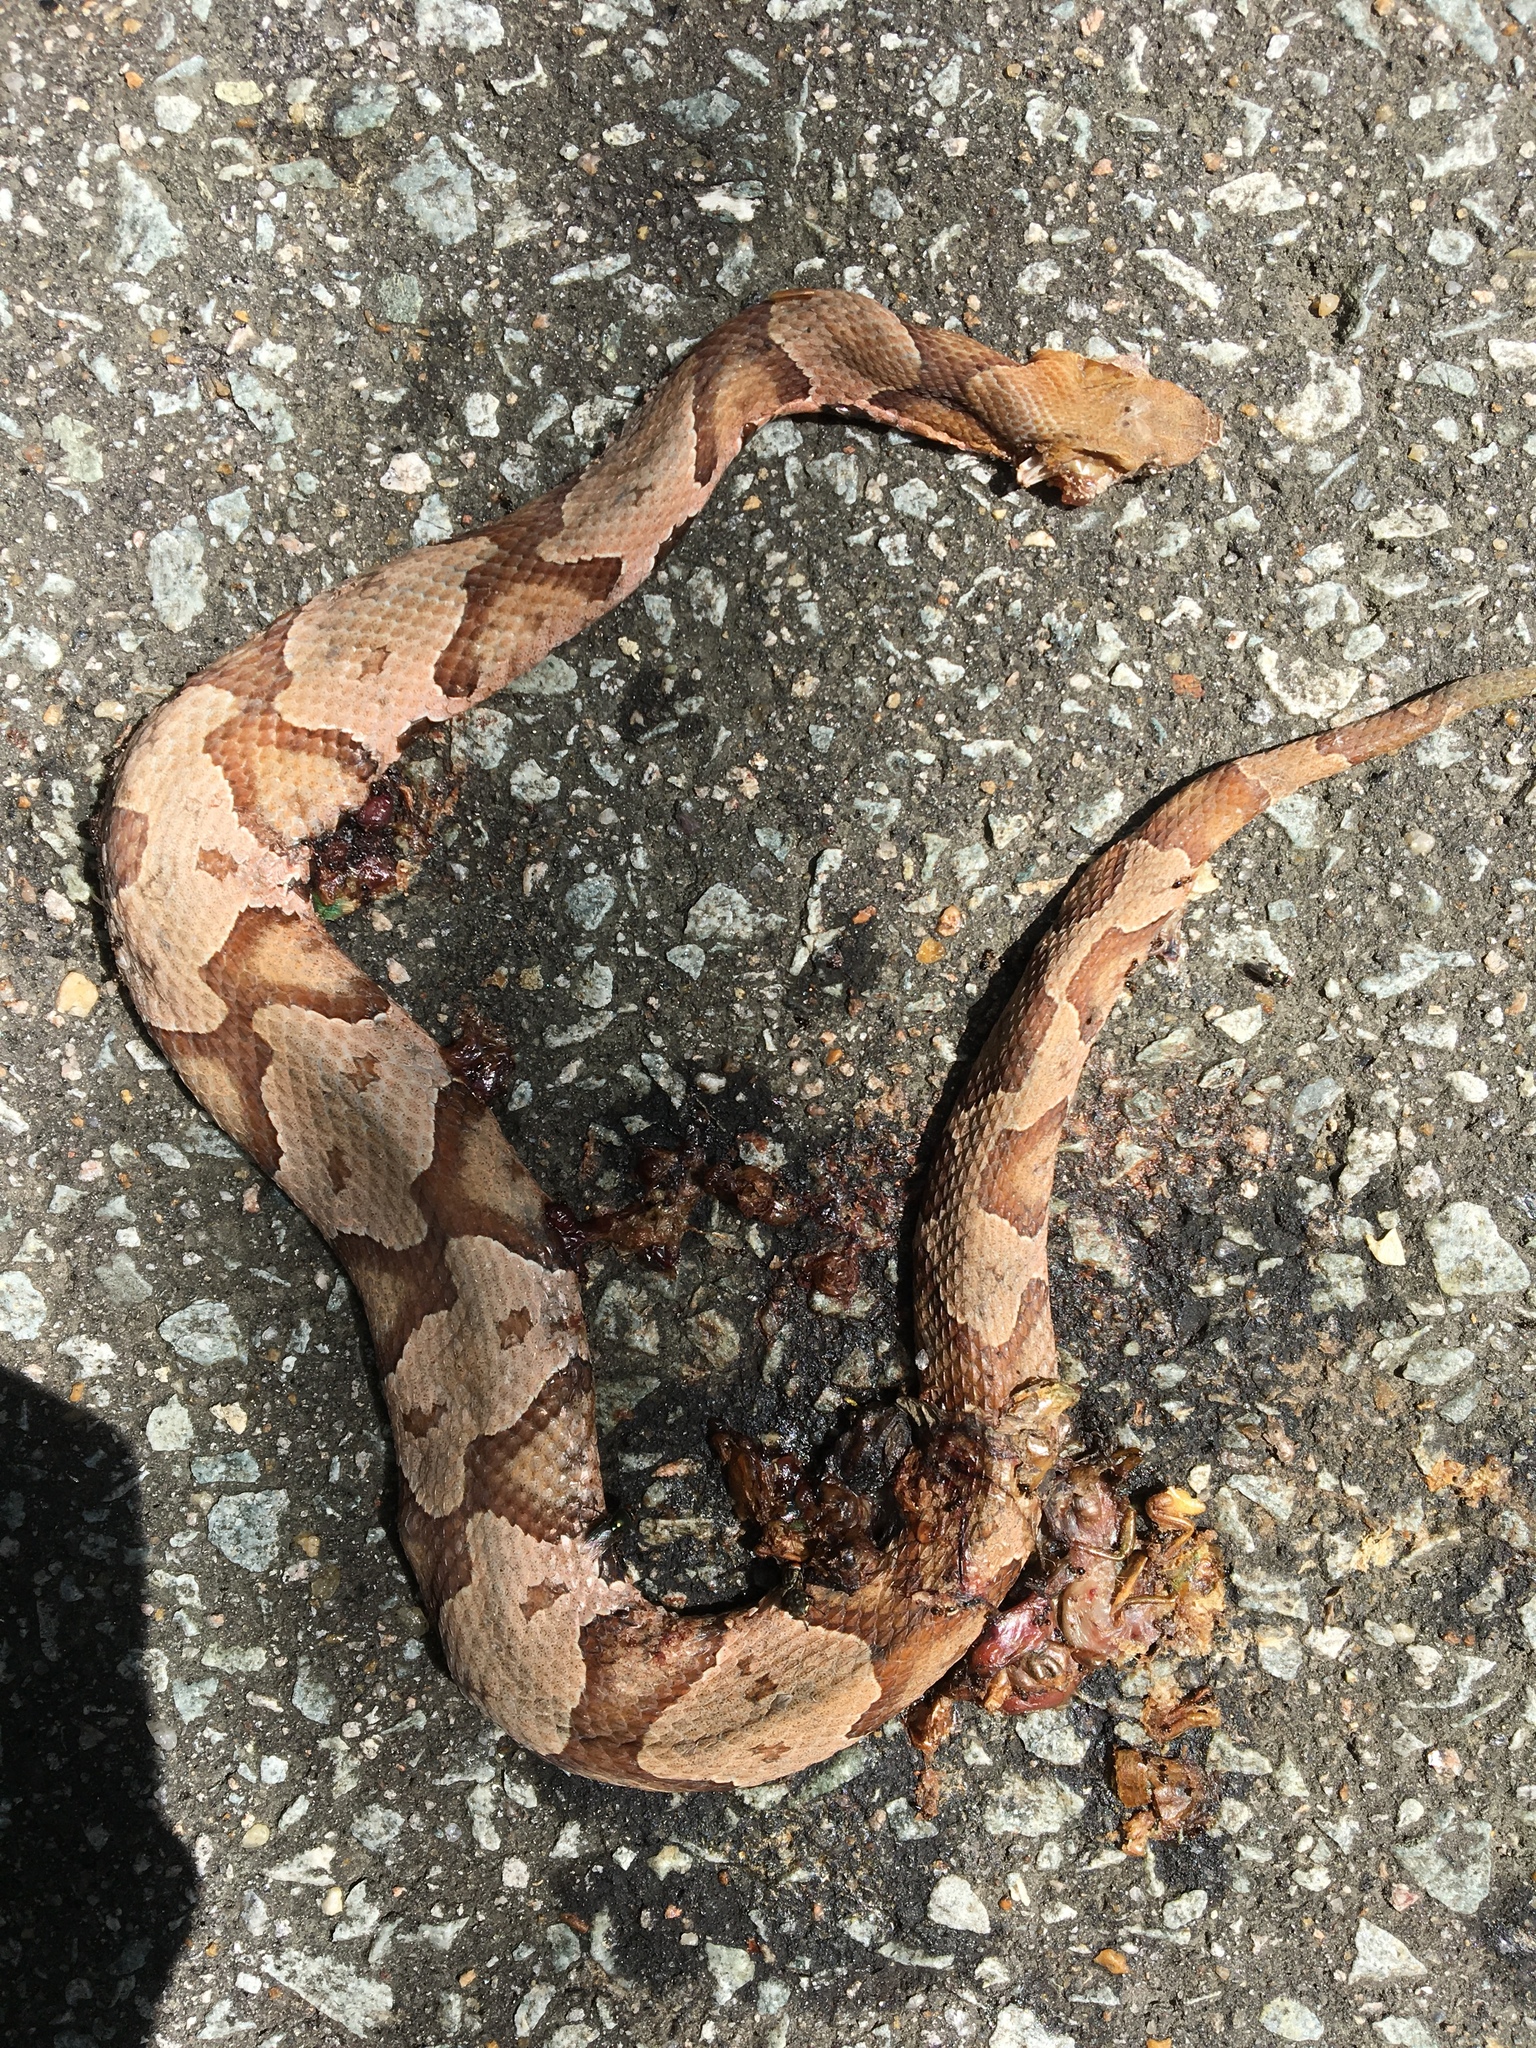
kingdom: Animalia
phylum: Chordata
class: Squamata
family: Viperidae
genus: Agkistrodon
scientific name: Agkistrodon contortrix
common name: Northern copperhead
